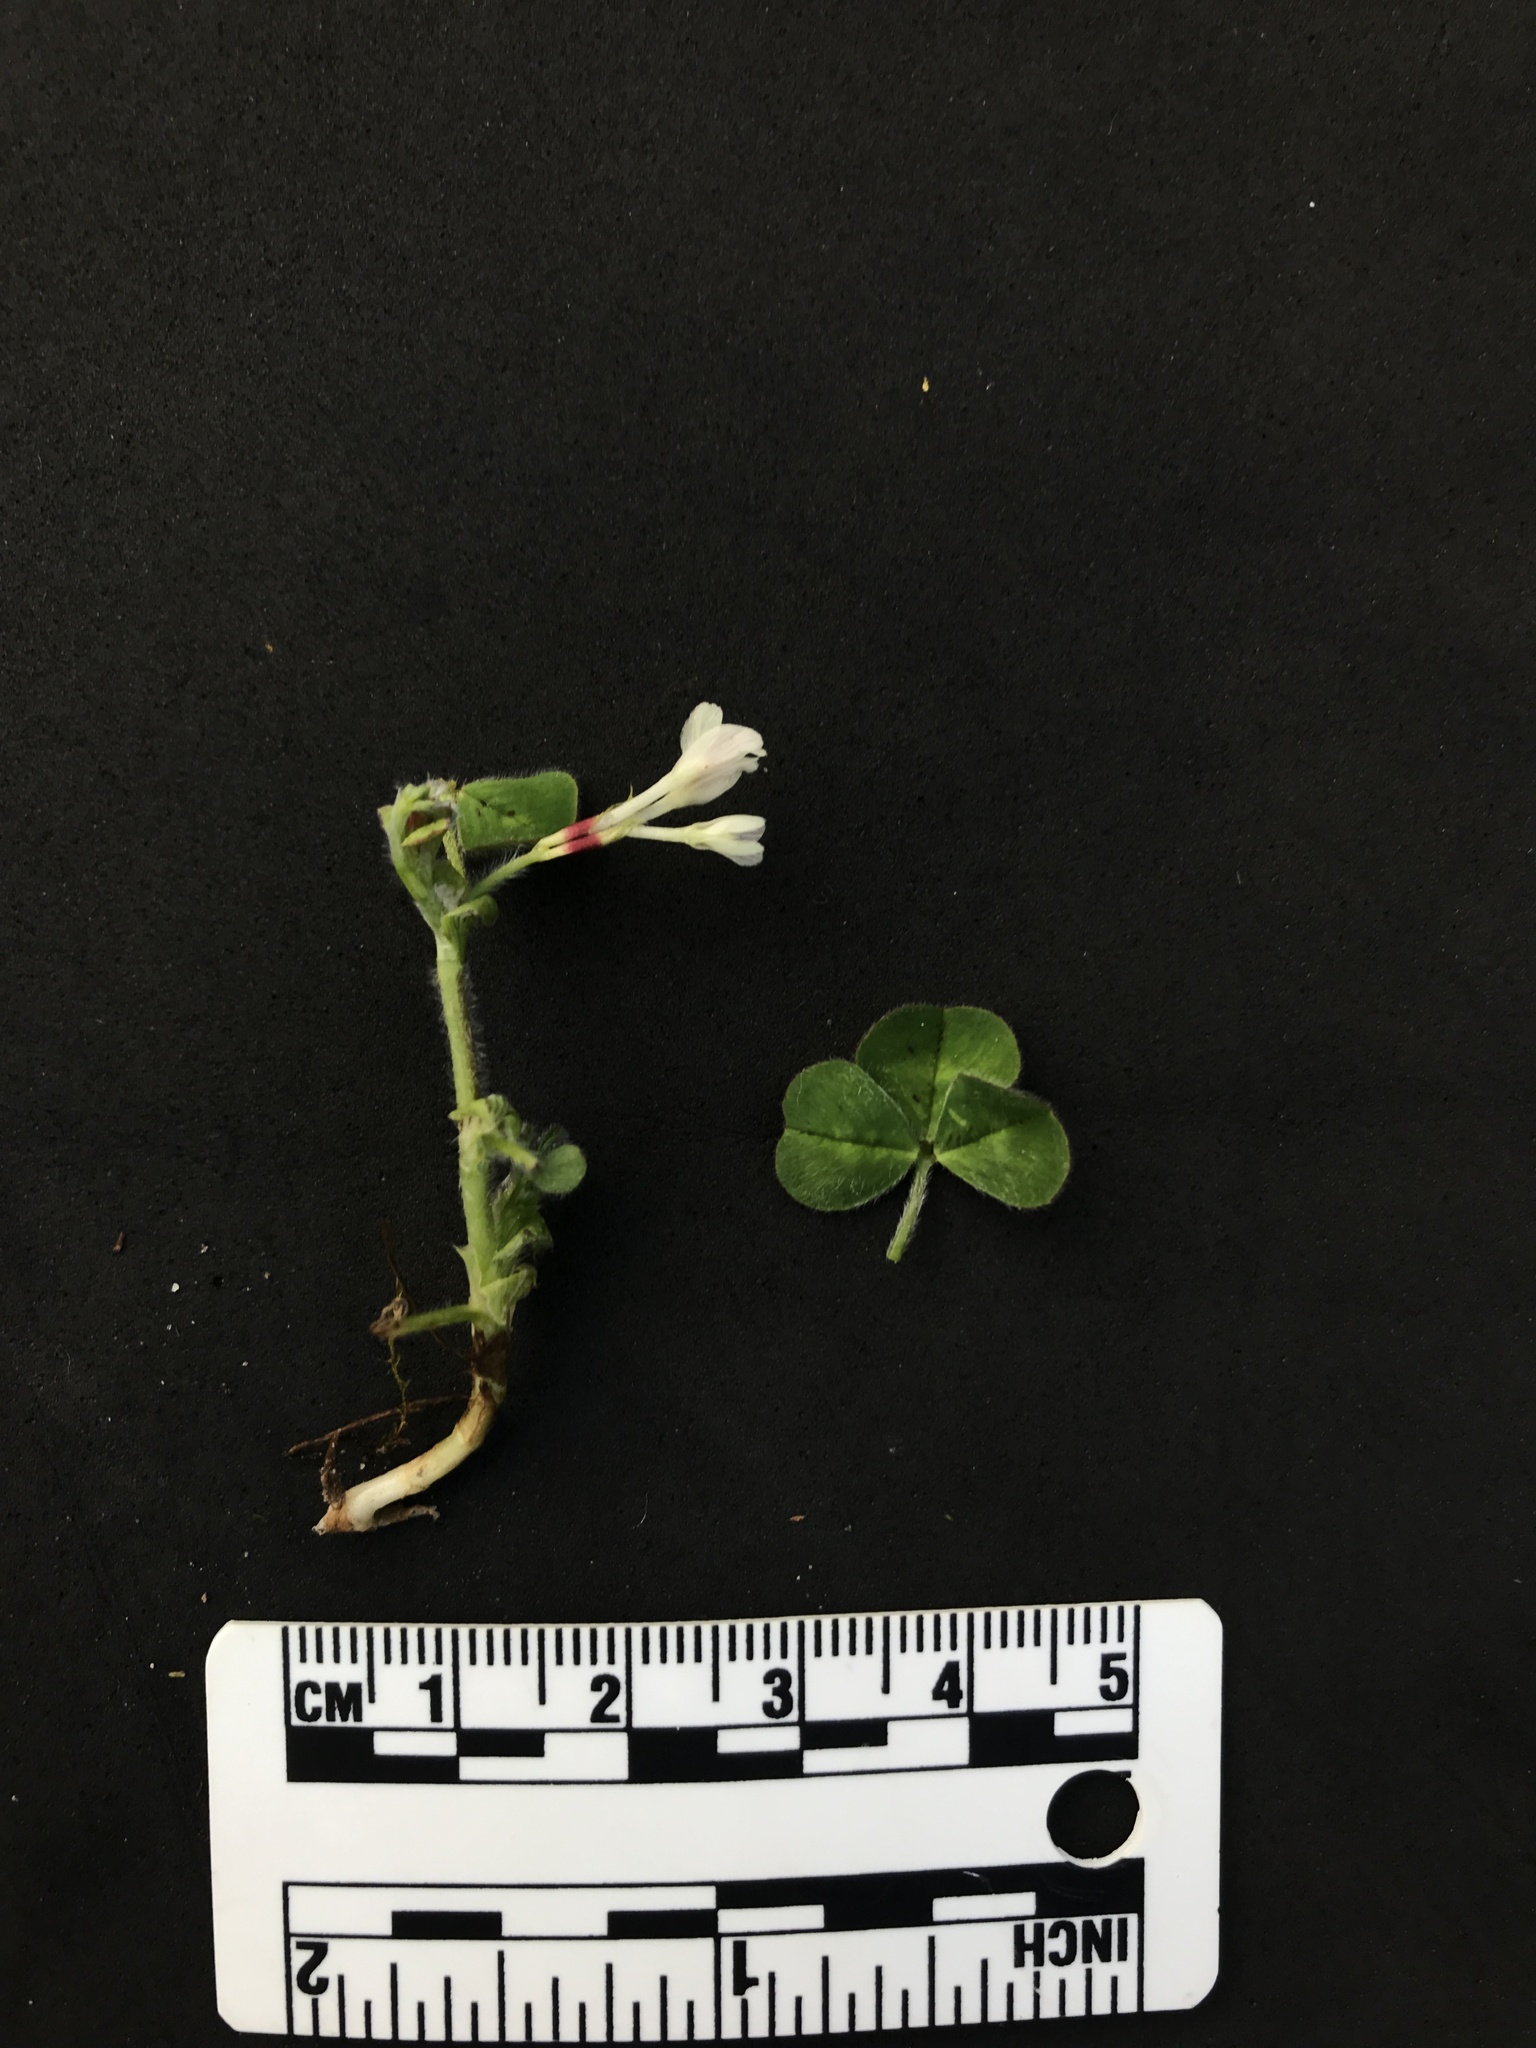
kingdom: Plantae
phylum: Tracheophyta
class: Magnoliopsida
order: Fabales
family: Fabaceae
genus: Trifolium
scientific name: Trifolium subterraneum
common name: Subterranean clover
